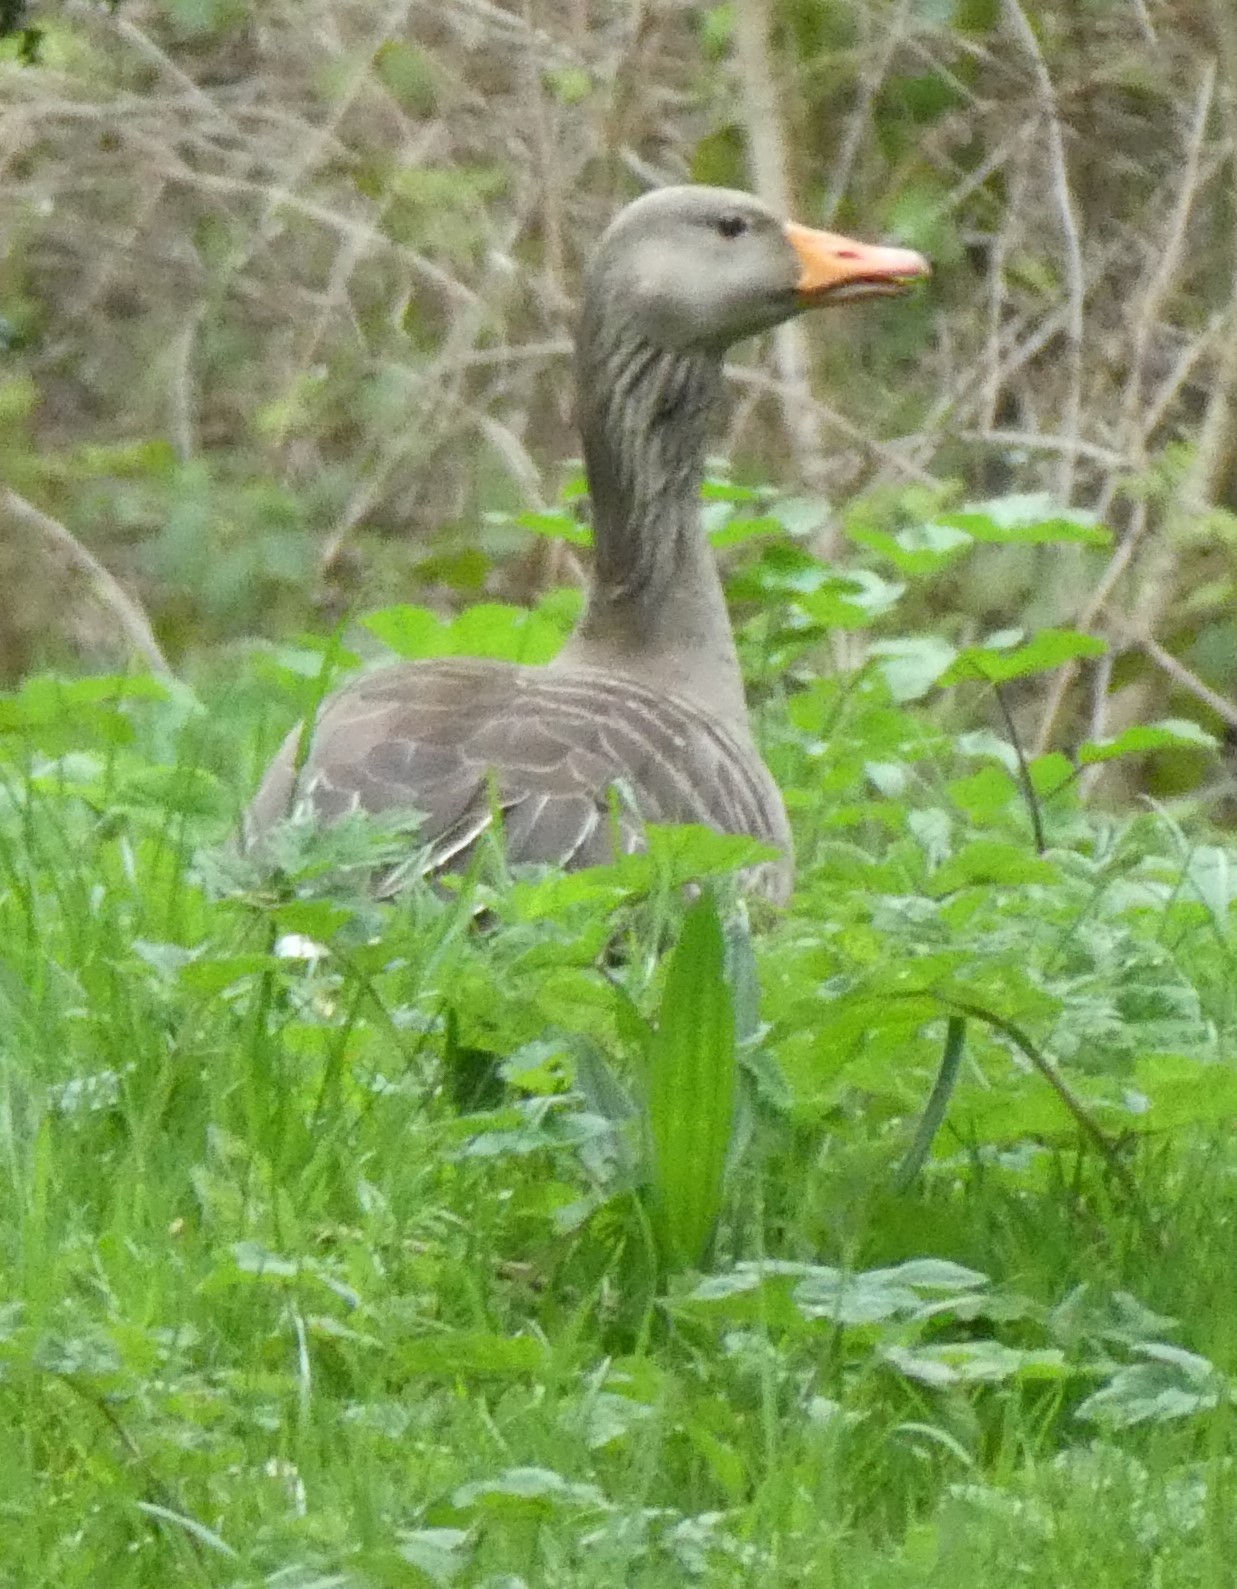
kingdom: Animalia
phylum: Chordata
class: Aves
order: Anseriformes
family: Anatidae
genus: Anser
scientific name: Anser anser
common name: Greylag goose
